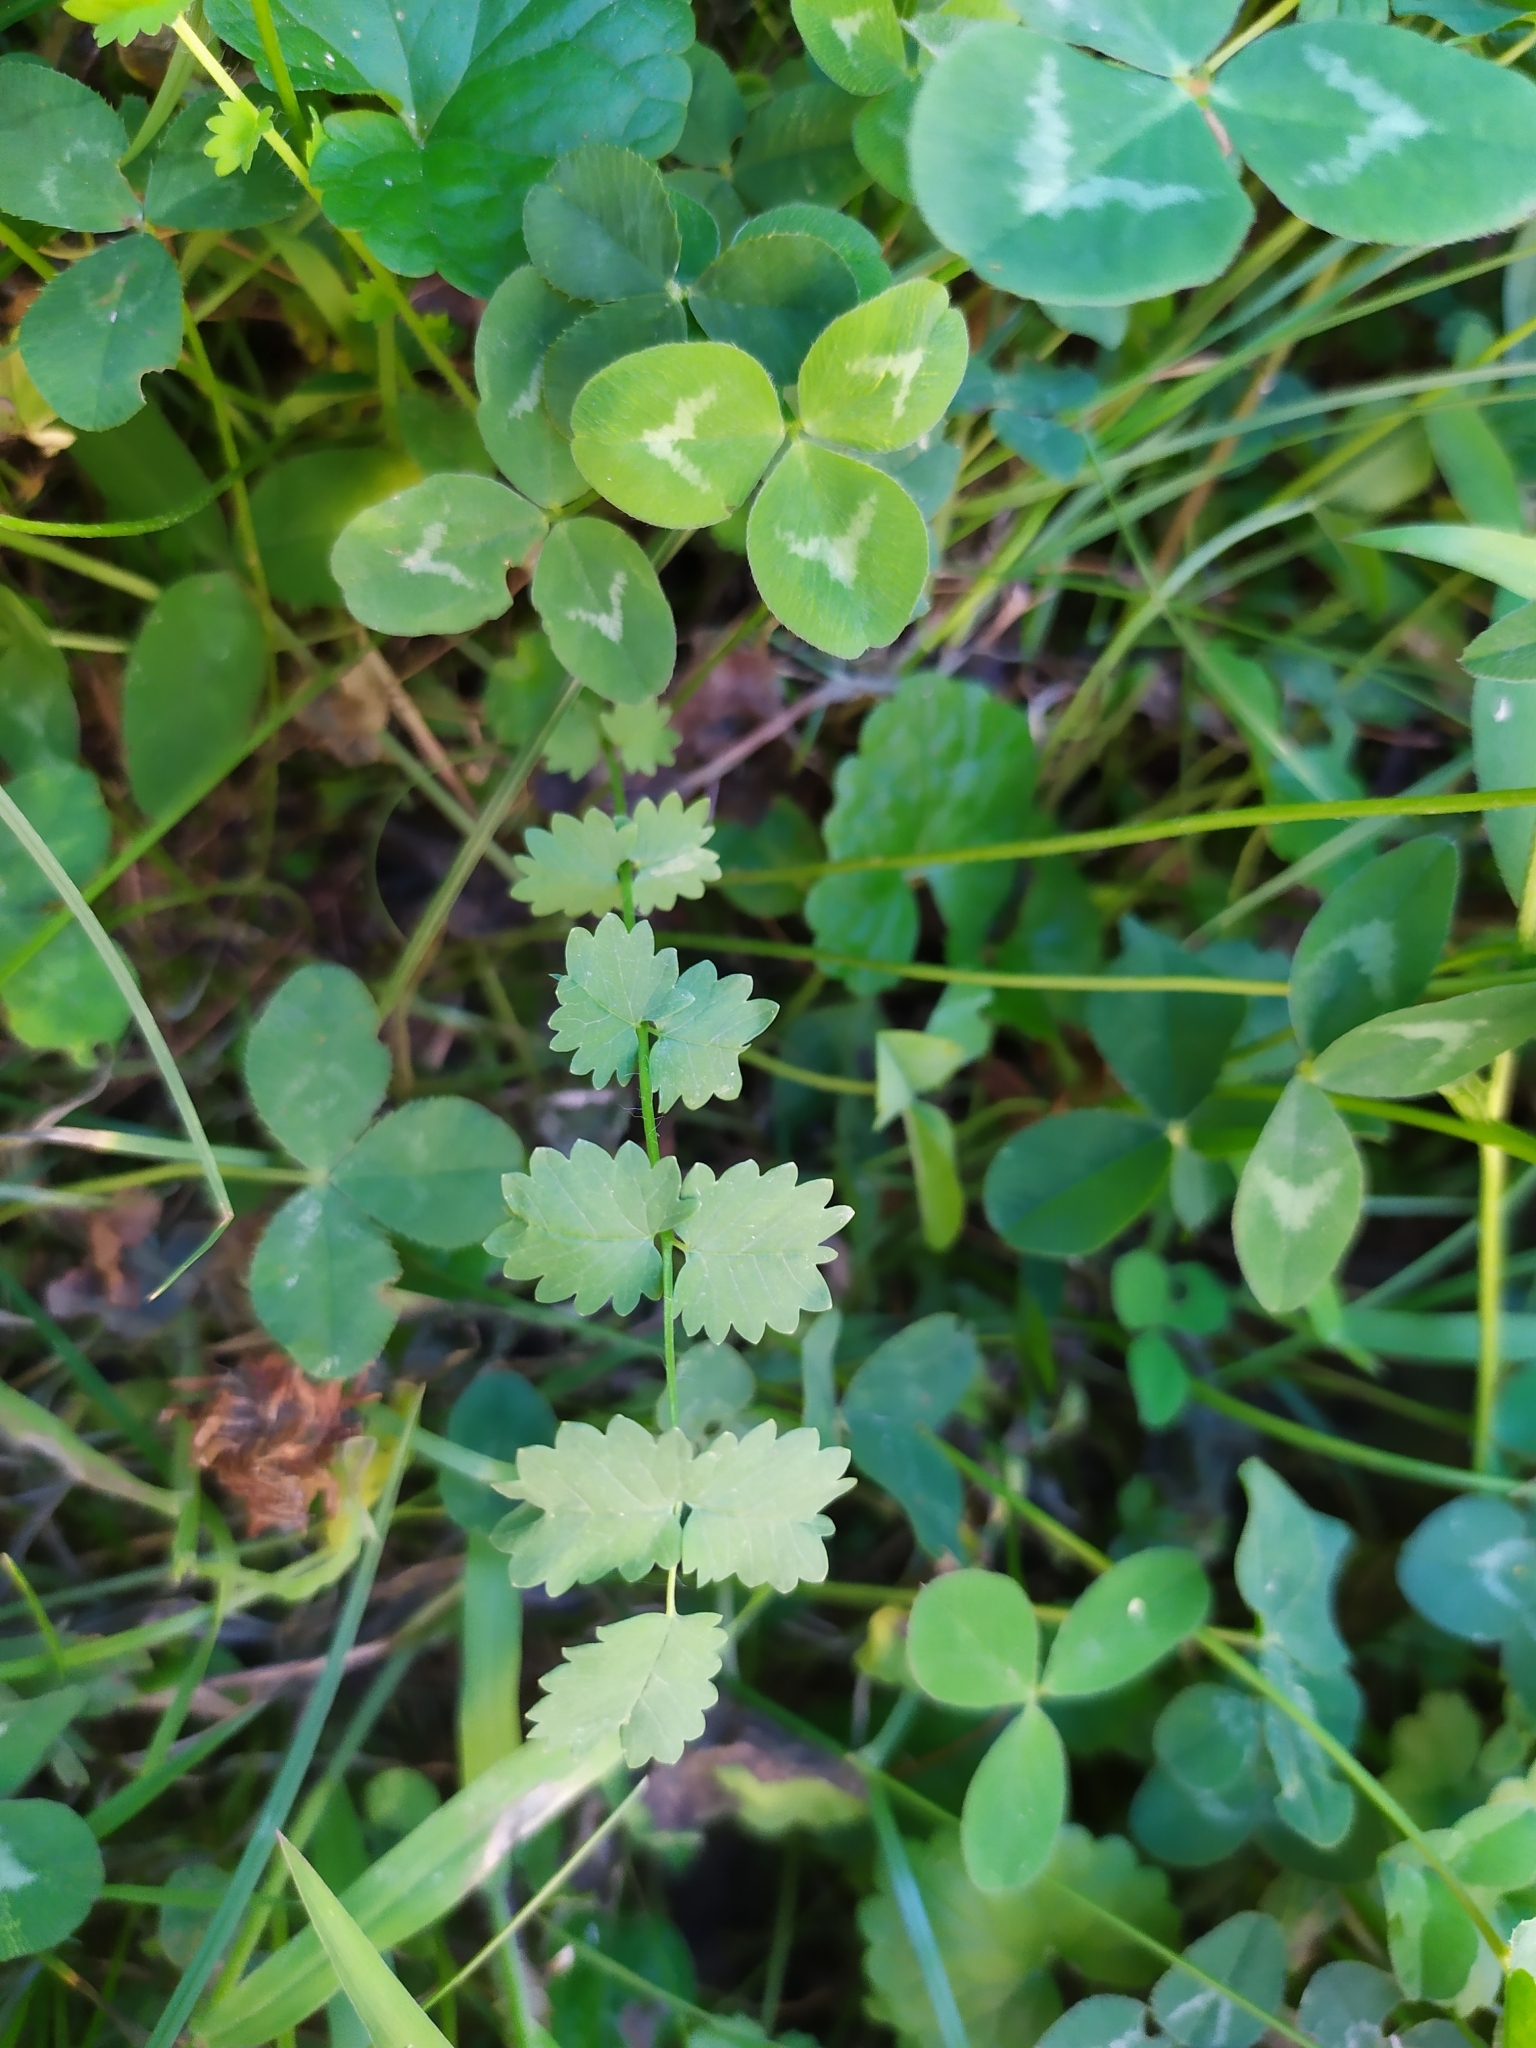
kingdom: Plantae
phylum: Tracheophyta
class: Magnoliopsida
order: Rosales
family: Rosaceae
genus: Poterium
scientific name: Poterium sanguisorba
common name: Salad burnet
